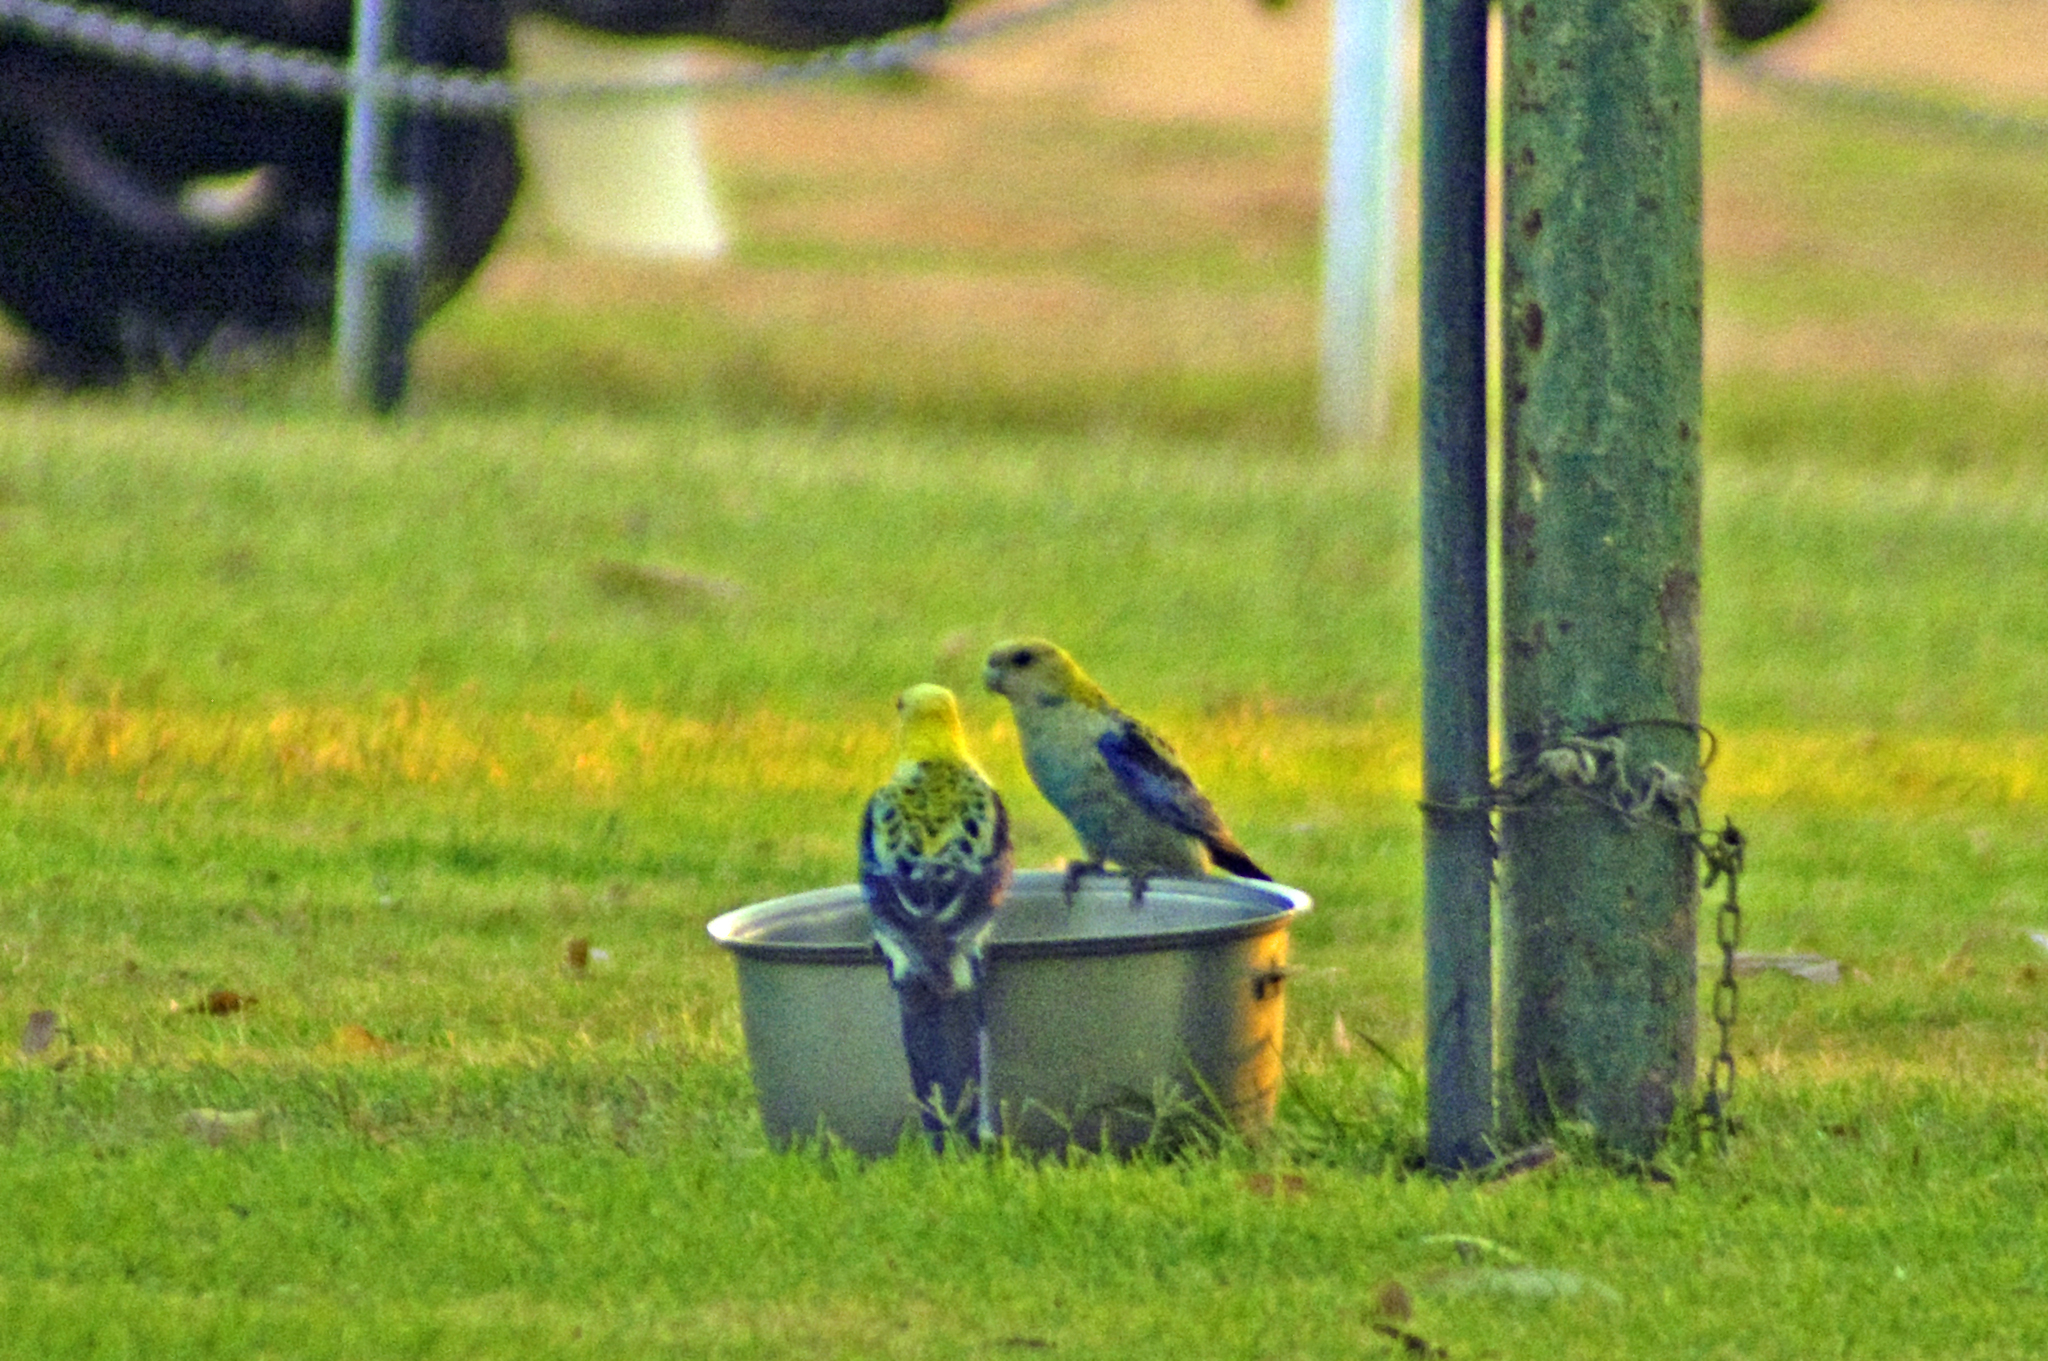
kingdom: Animalia
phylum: Chordata
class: Aves
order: Psittaciformes
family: Psittacidae
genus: Platycercus
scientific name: Platycercus adscitus
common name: Pale-headed rosella
